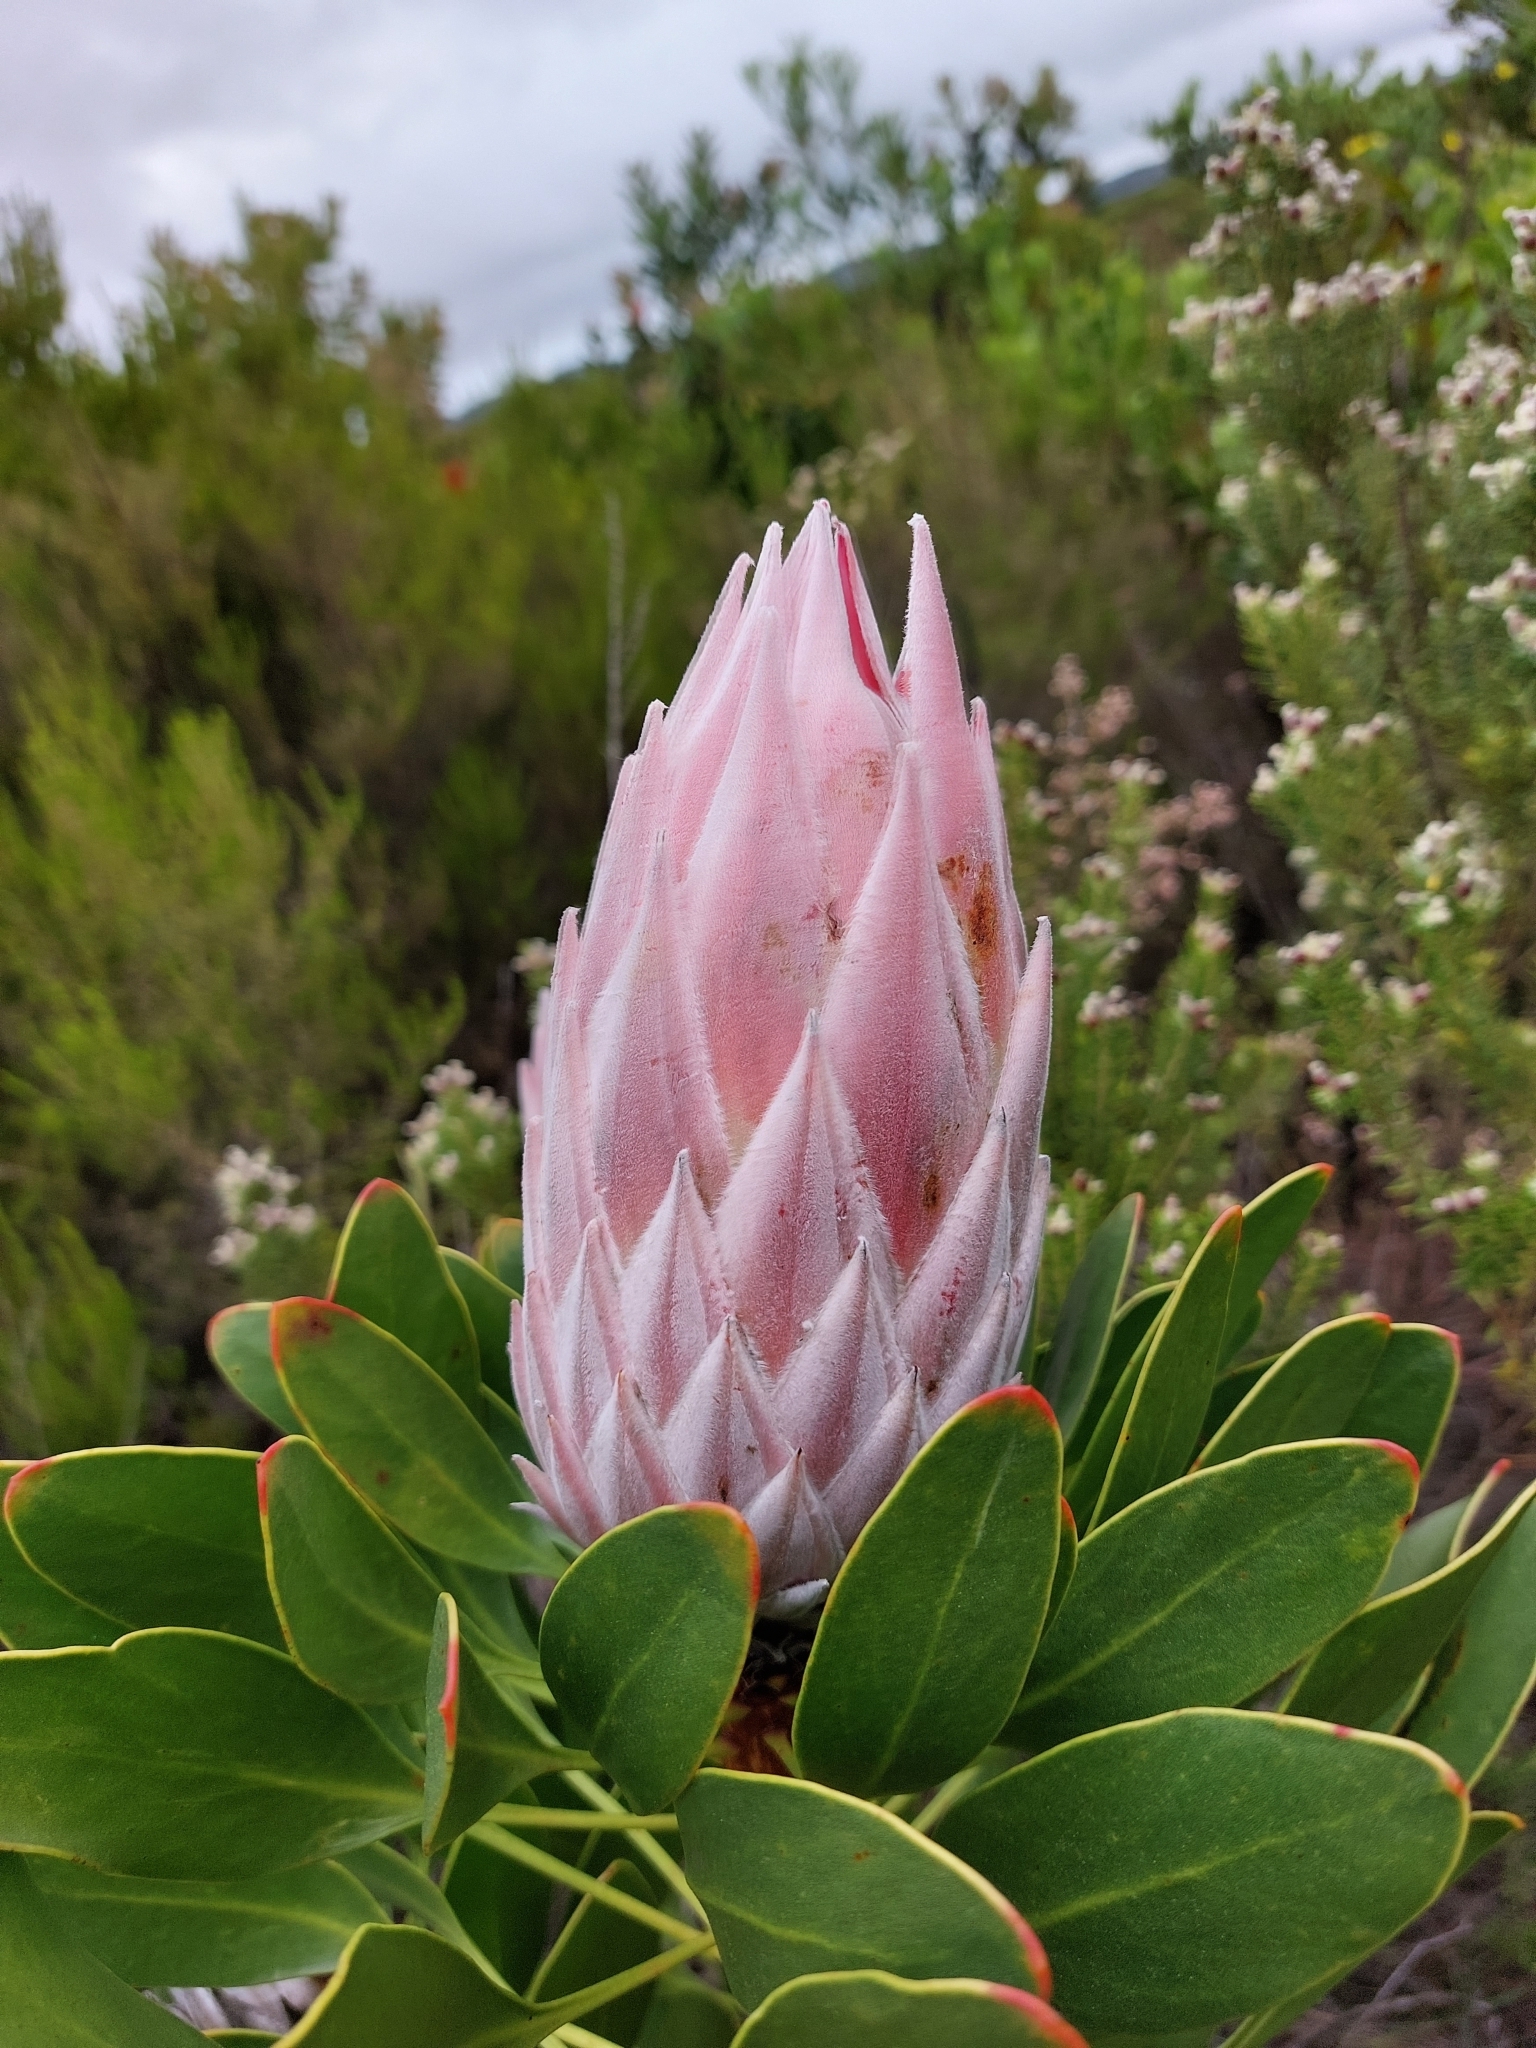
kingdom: Plantae
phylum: Tracheophyta
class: Magnoliopsida
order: Proteales
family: Proteaceae
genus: Protea
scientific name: Protea cynaroides
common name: King protea
